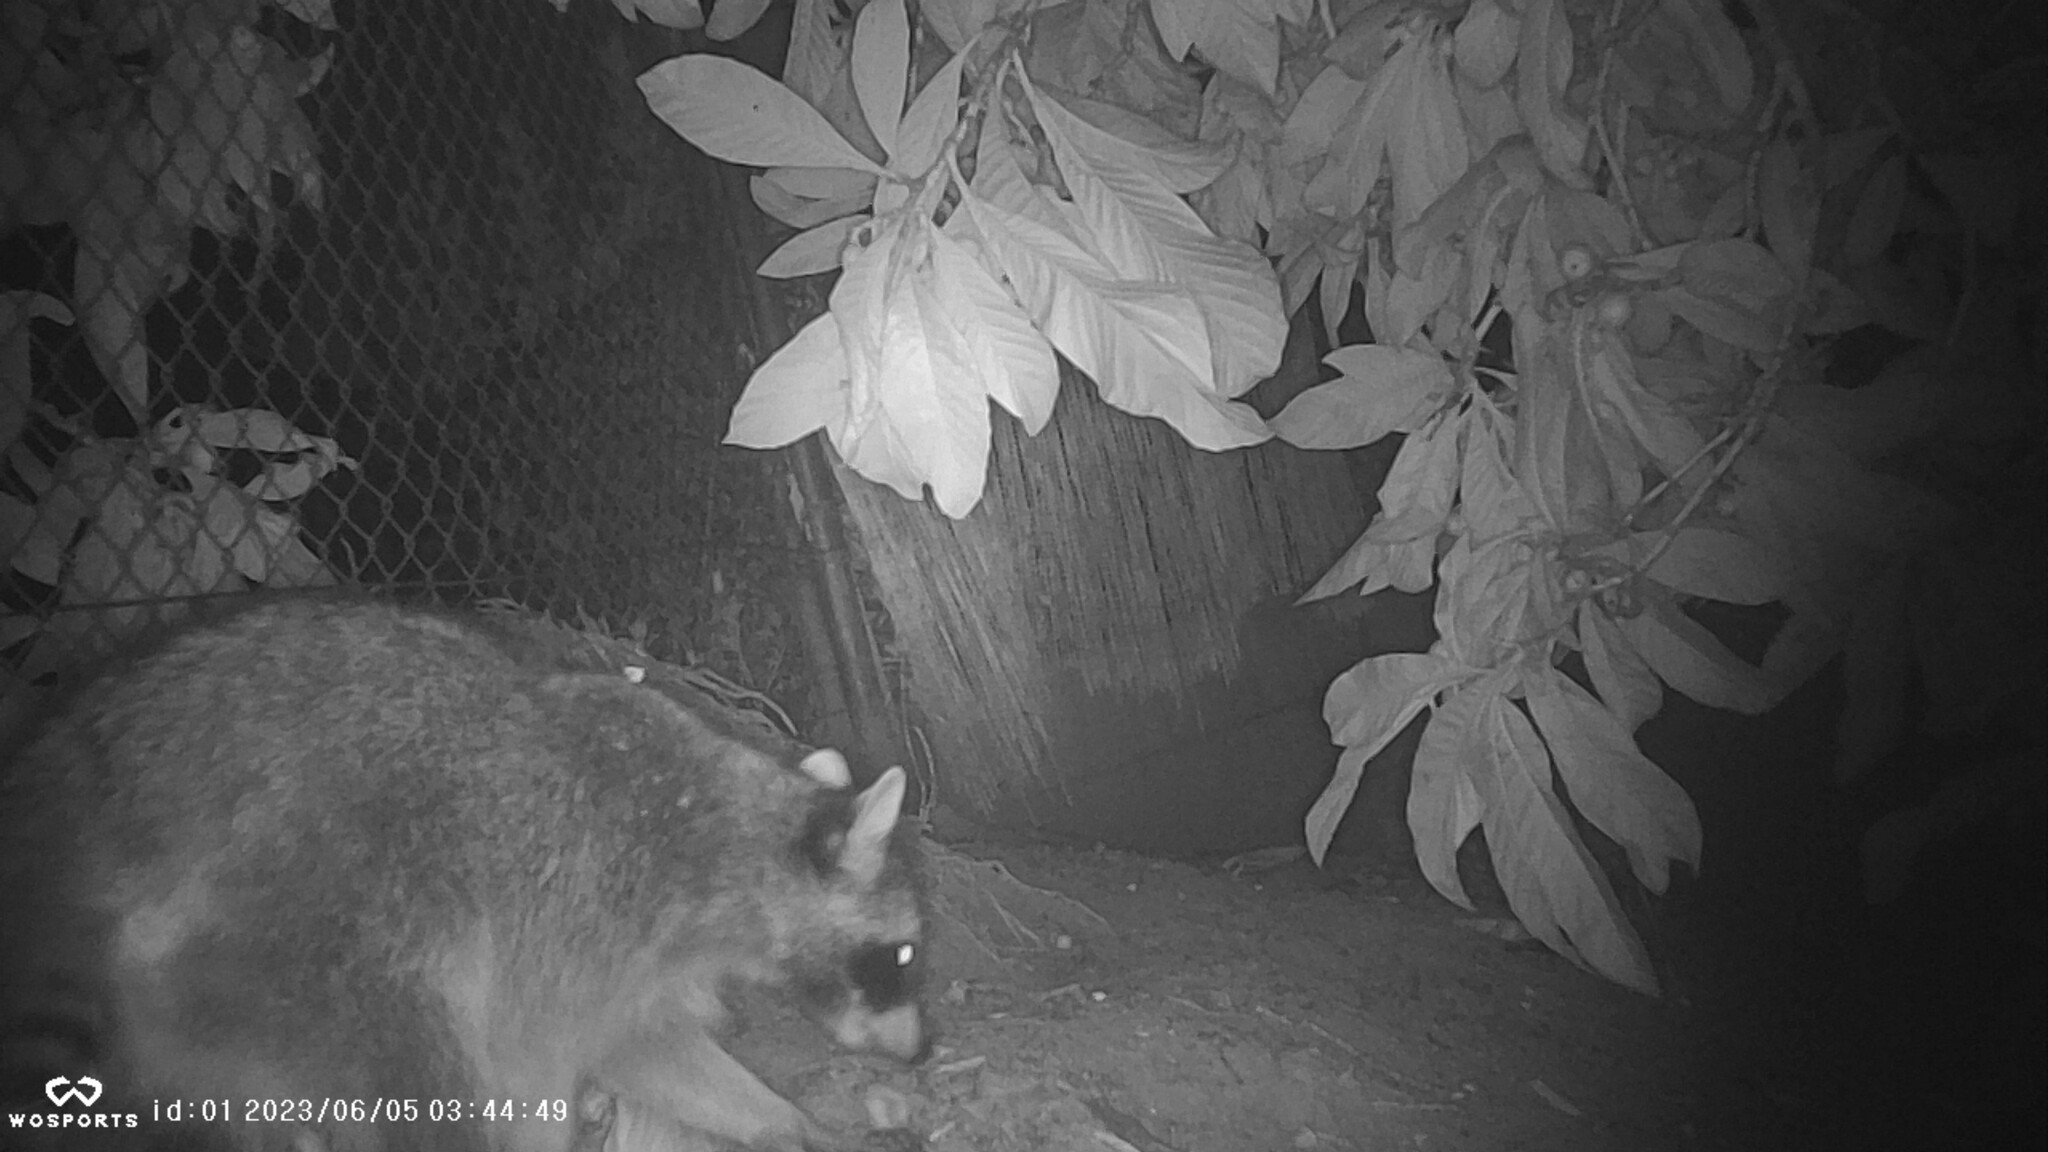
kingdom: Animalia
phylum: Chordata
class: Mammalia
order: Carnivora
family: Procyonidae
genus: Procyon
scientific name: Procyon lotor
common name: Raccoon
